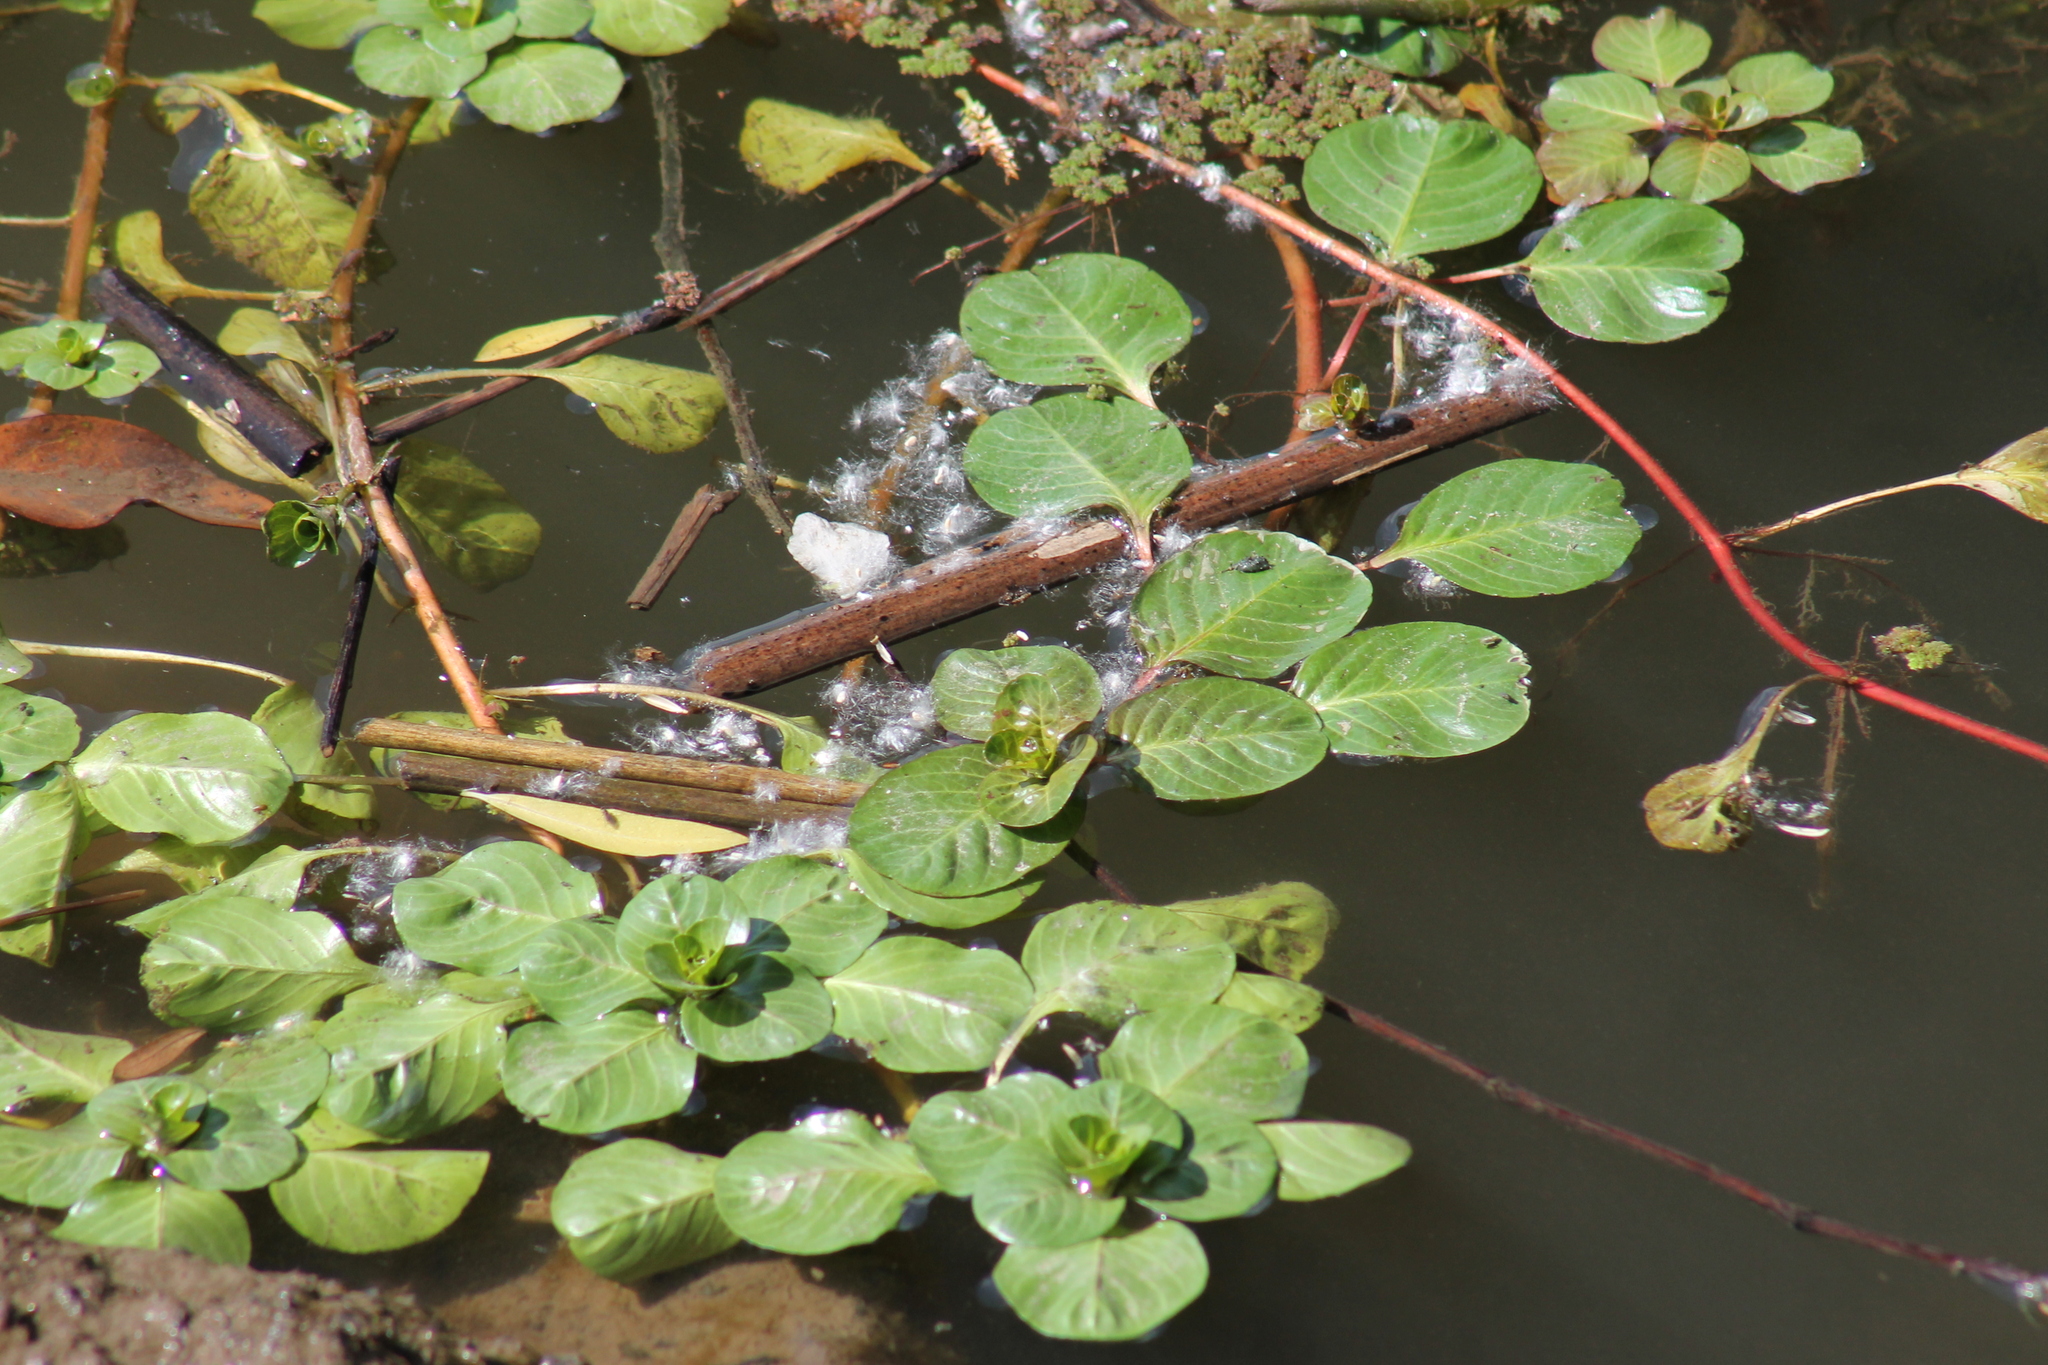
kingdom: Plantae
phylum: Tracheophyta
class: Magnoliopsida
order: Myrtales
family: Onagraceae
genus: Ludwigia
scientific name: Ludwigia peploides
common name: Floating primrose-willow
